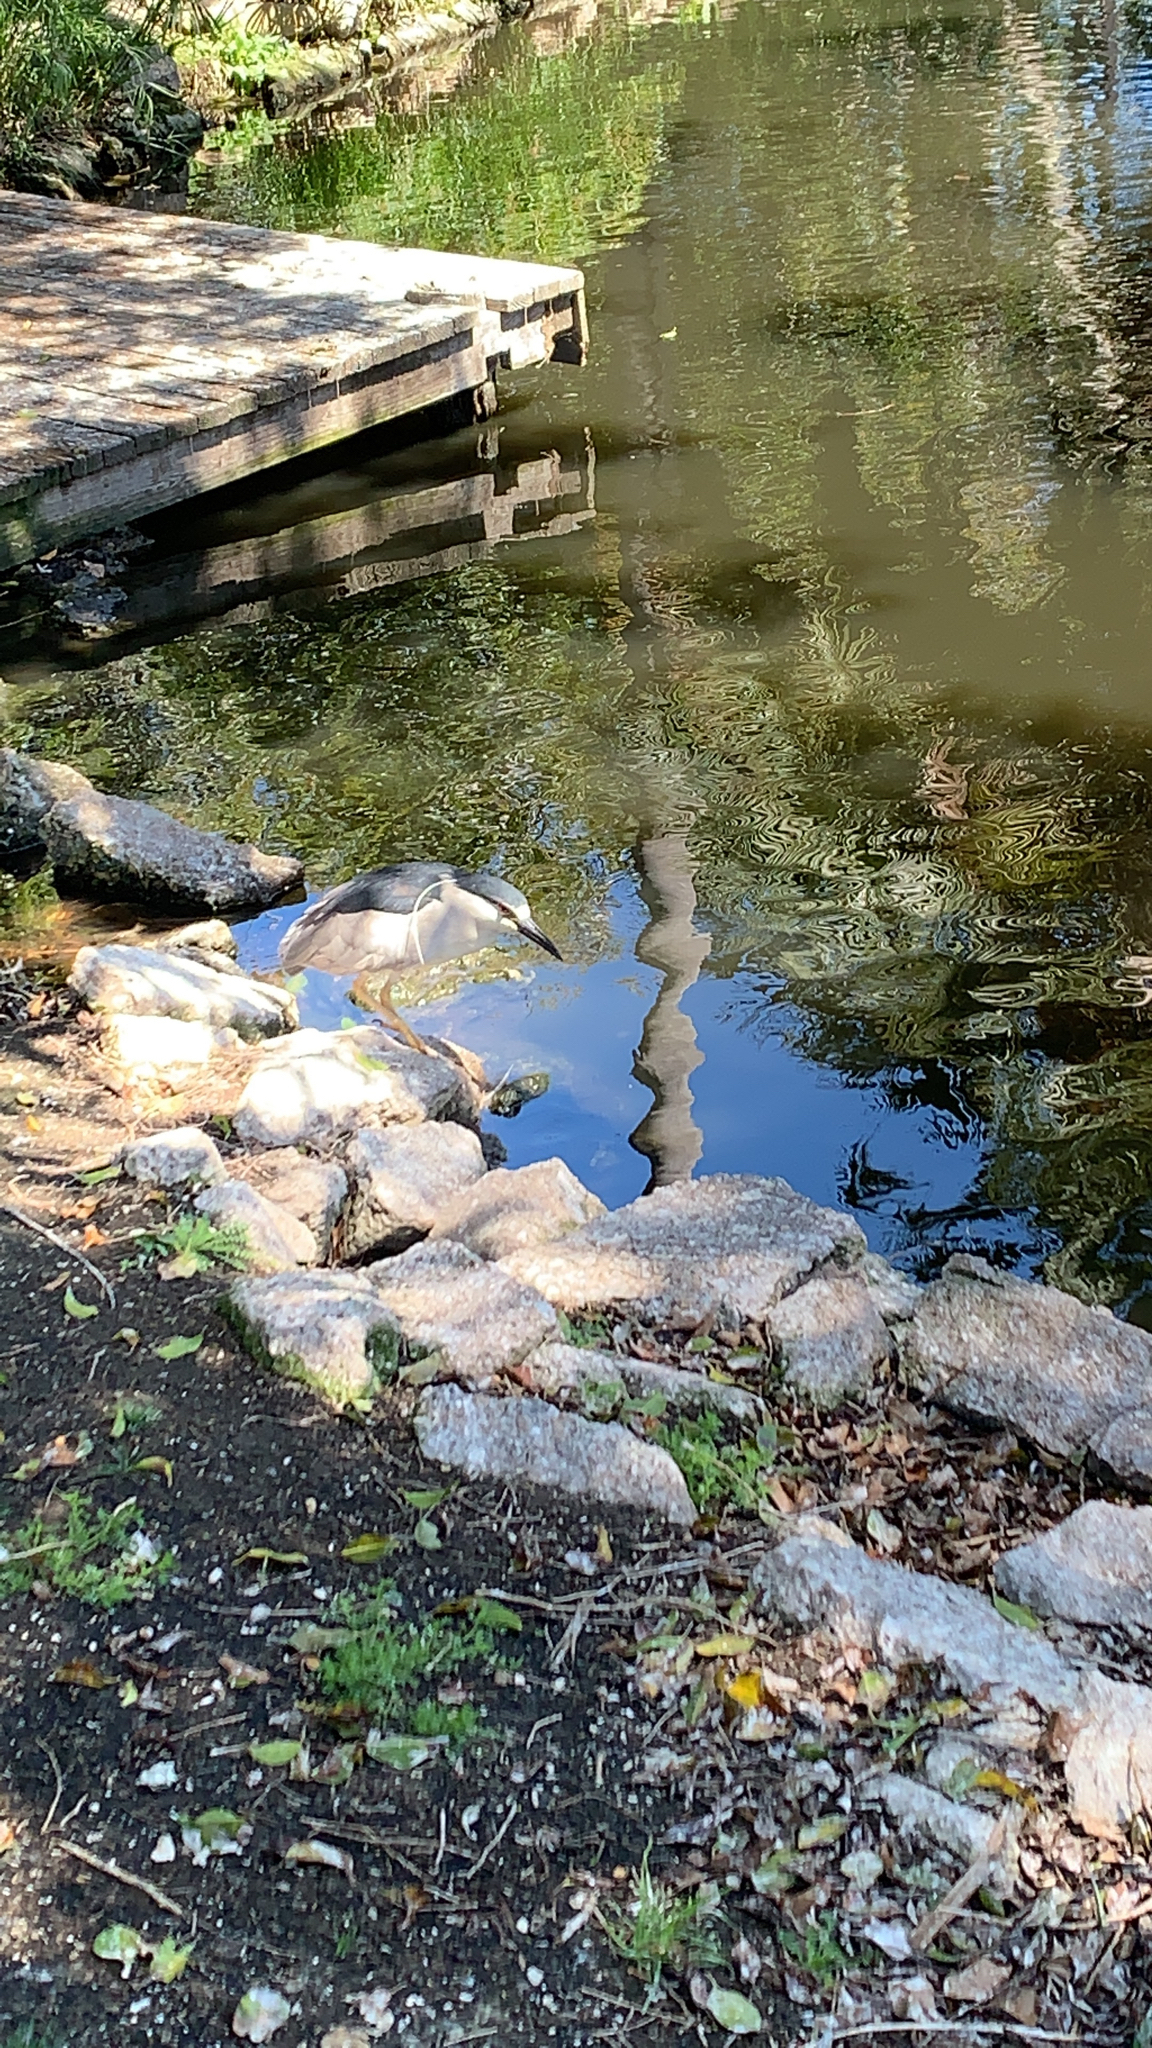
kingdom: Animalia
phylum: Chordata
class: Aves
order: Pelecaniformes
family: Ardeidae
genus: Nycticorax
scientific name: Nycticorax nycticorax
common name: Black-crowned night heron
